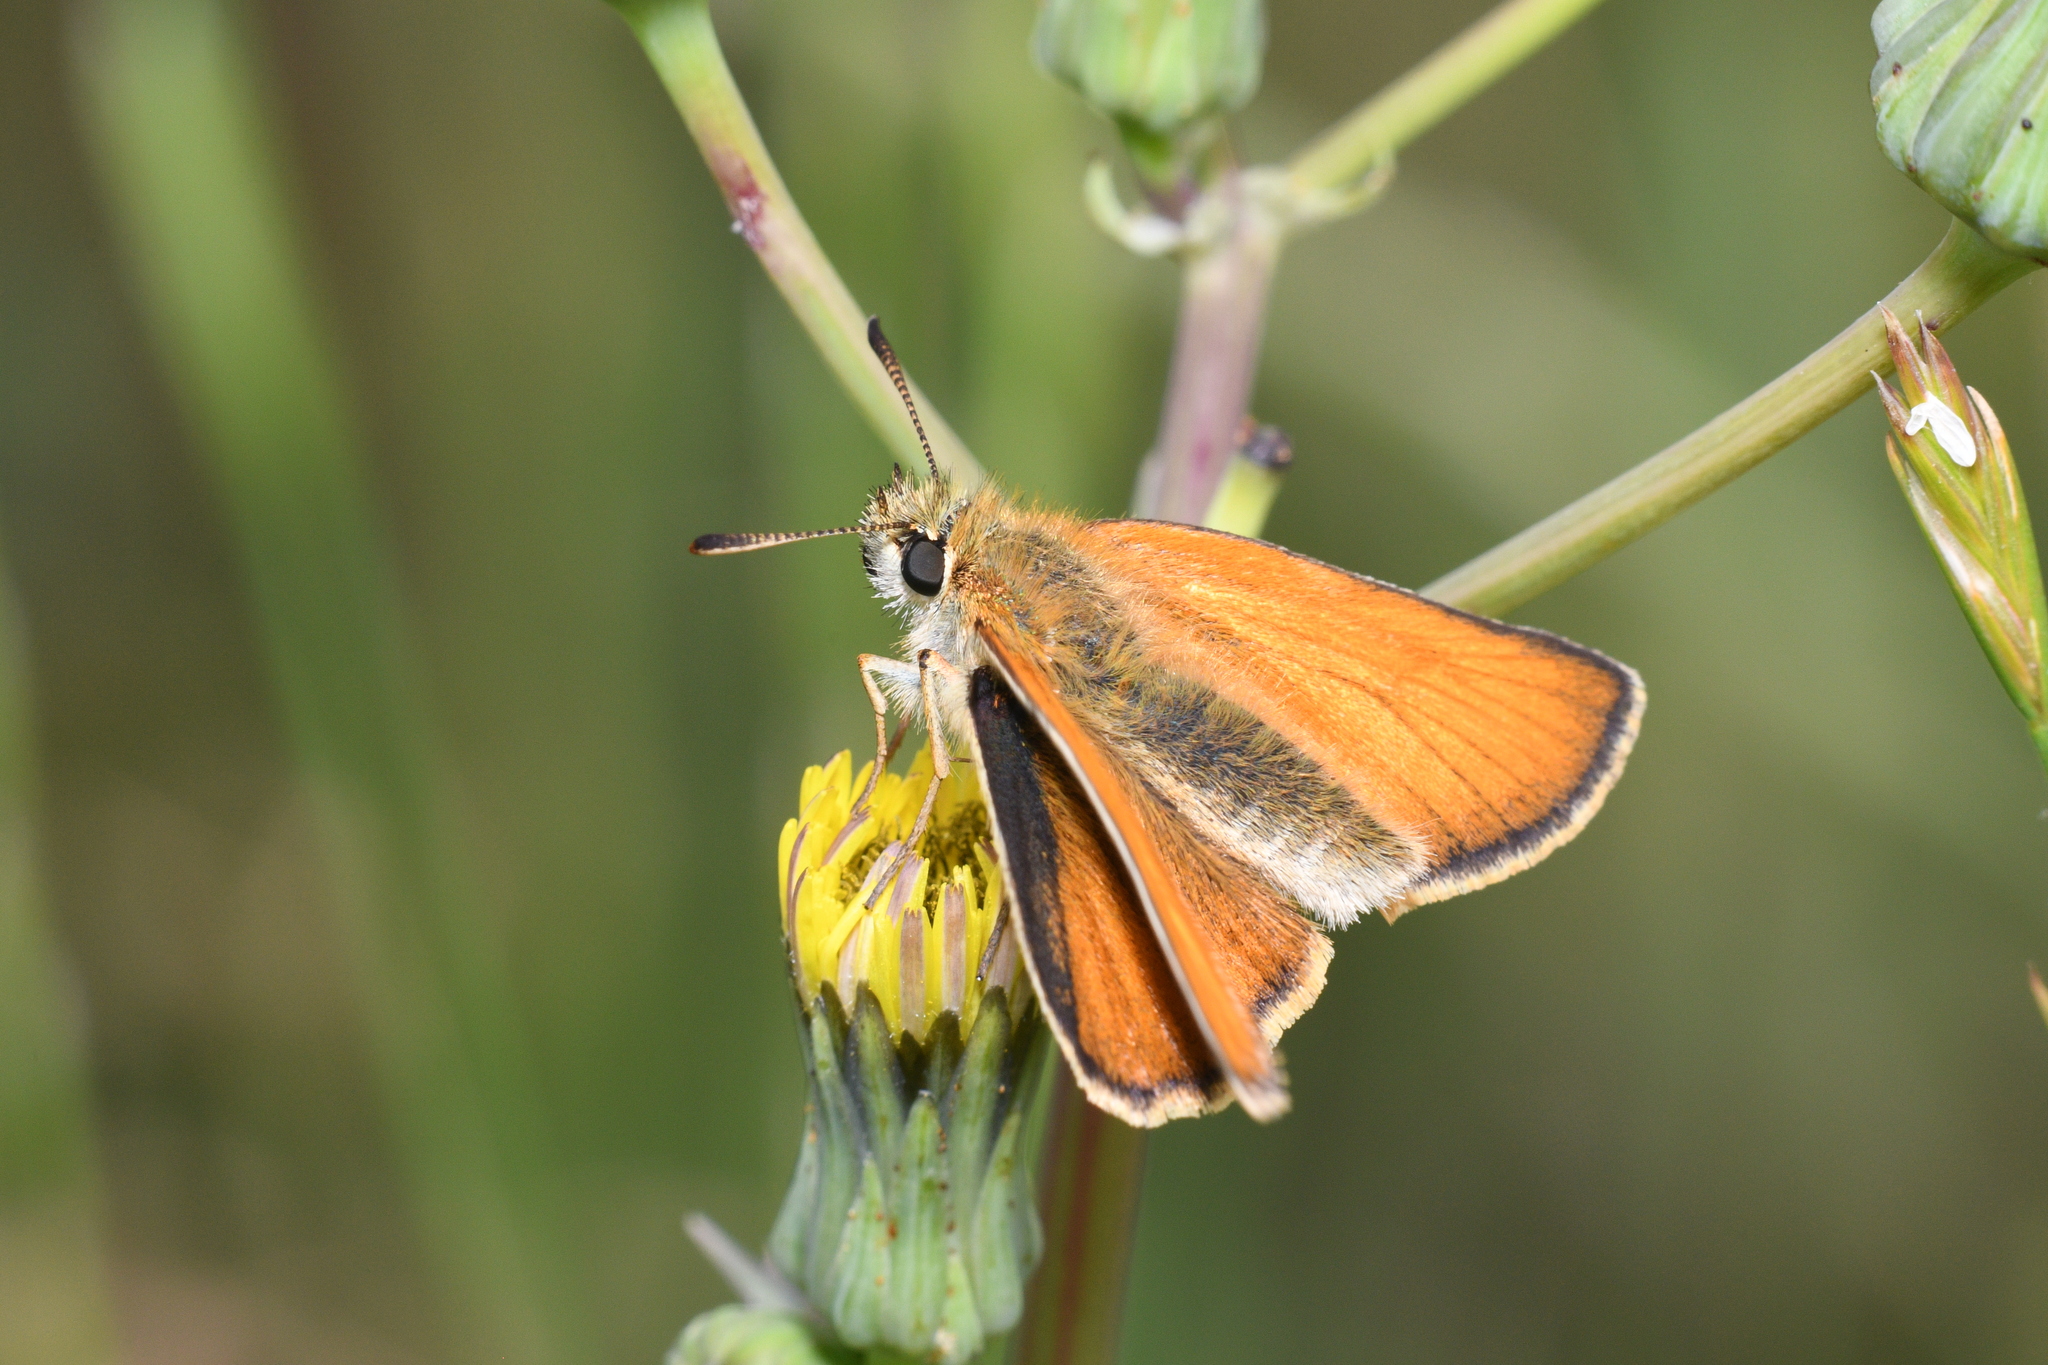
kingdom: Animalia
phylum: Arthropoda
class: Insecta
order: Lepidoptera
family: Hesperiidae
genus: Thymelicus
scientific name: Thymelicus sylvestris
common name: Small skipper
